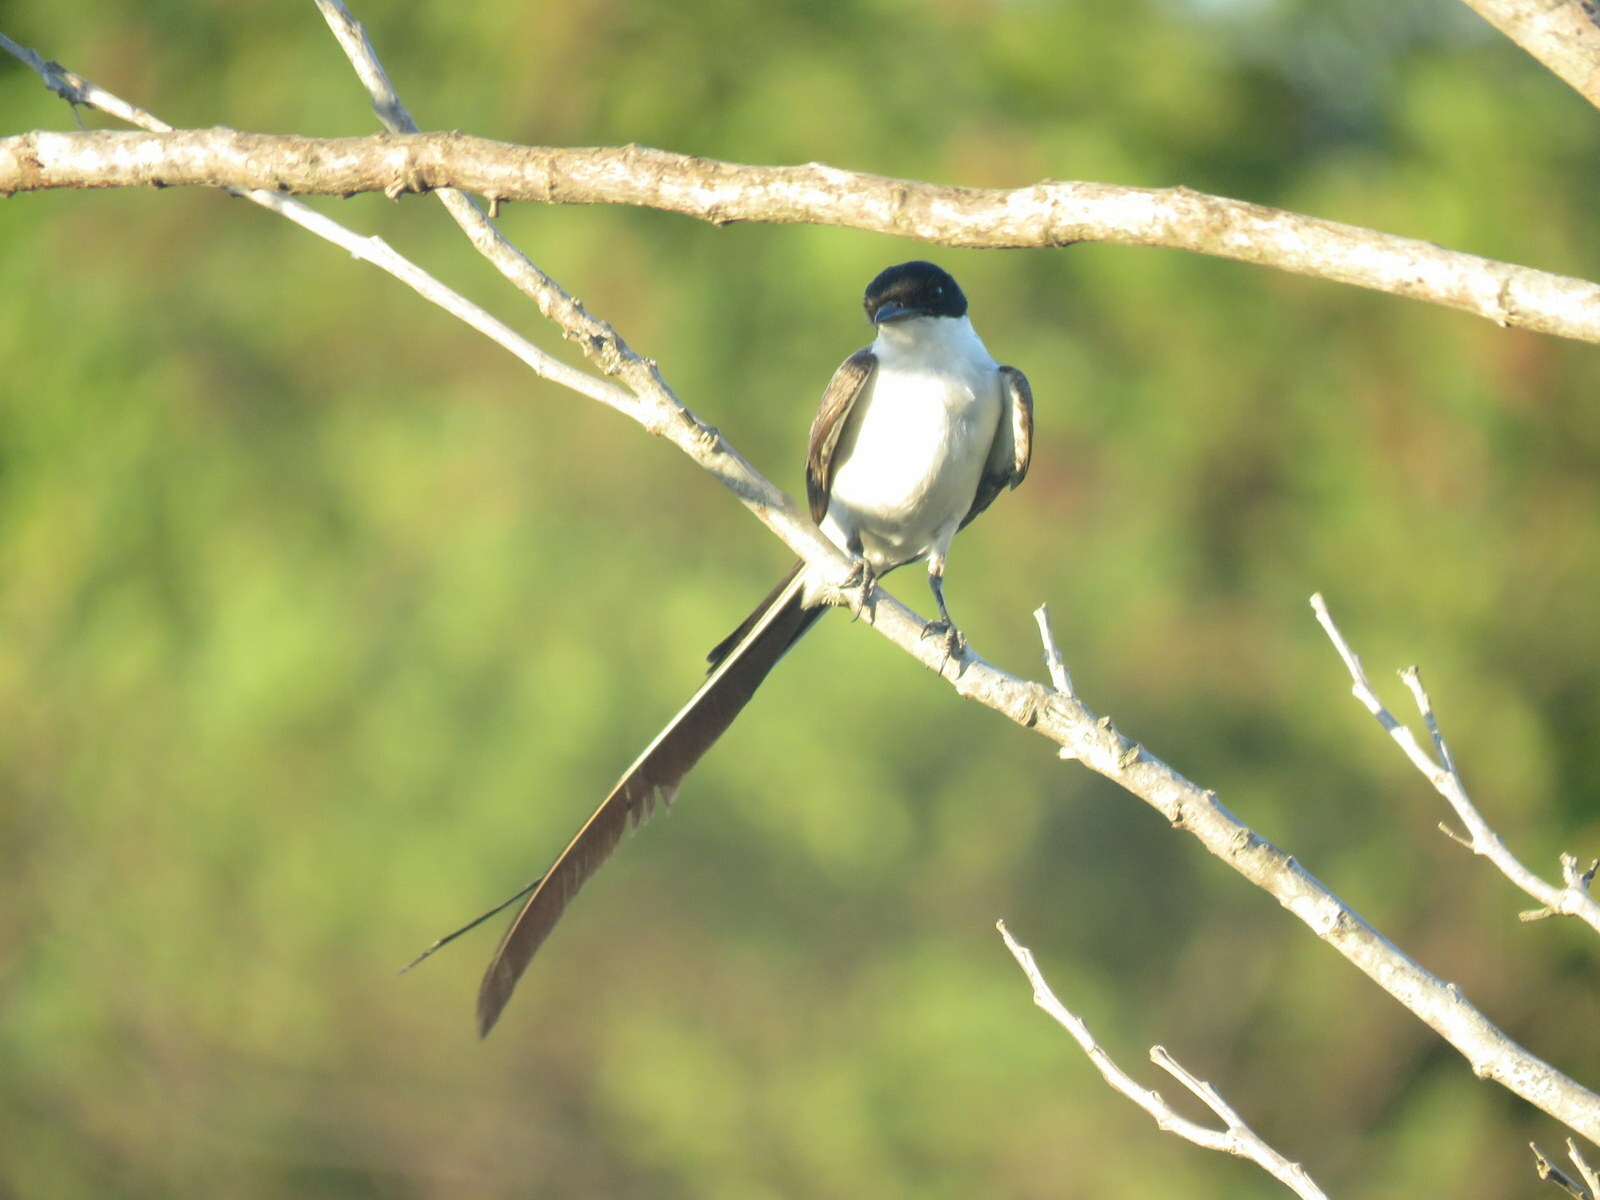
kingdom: Animalia
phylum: Chordata
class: Aves
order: Passeriformes
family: Tyrannidae
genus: Tyrannus
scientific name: Tyrannus savana
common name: Fork-tailed flycatcher
